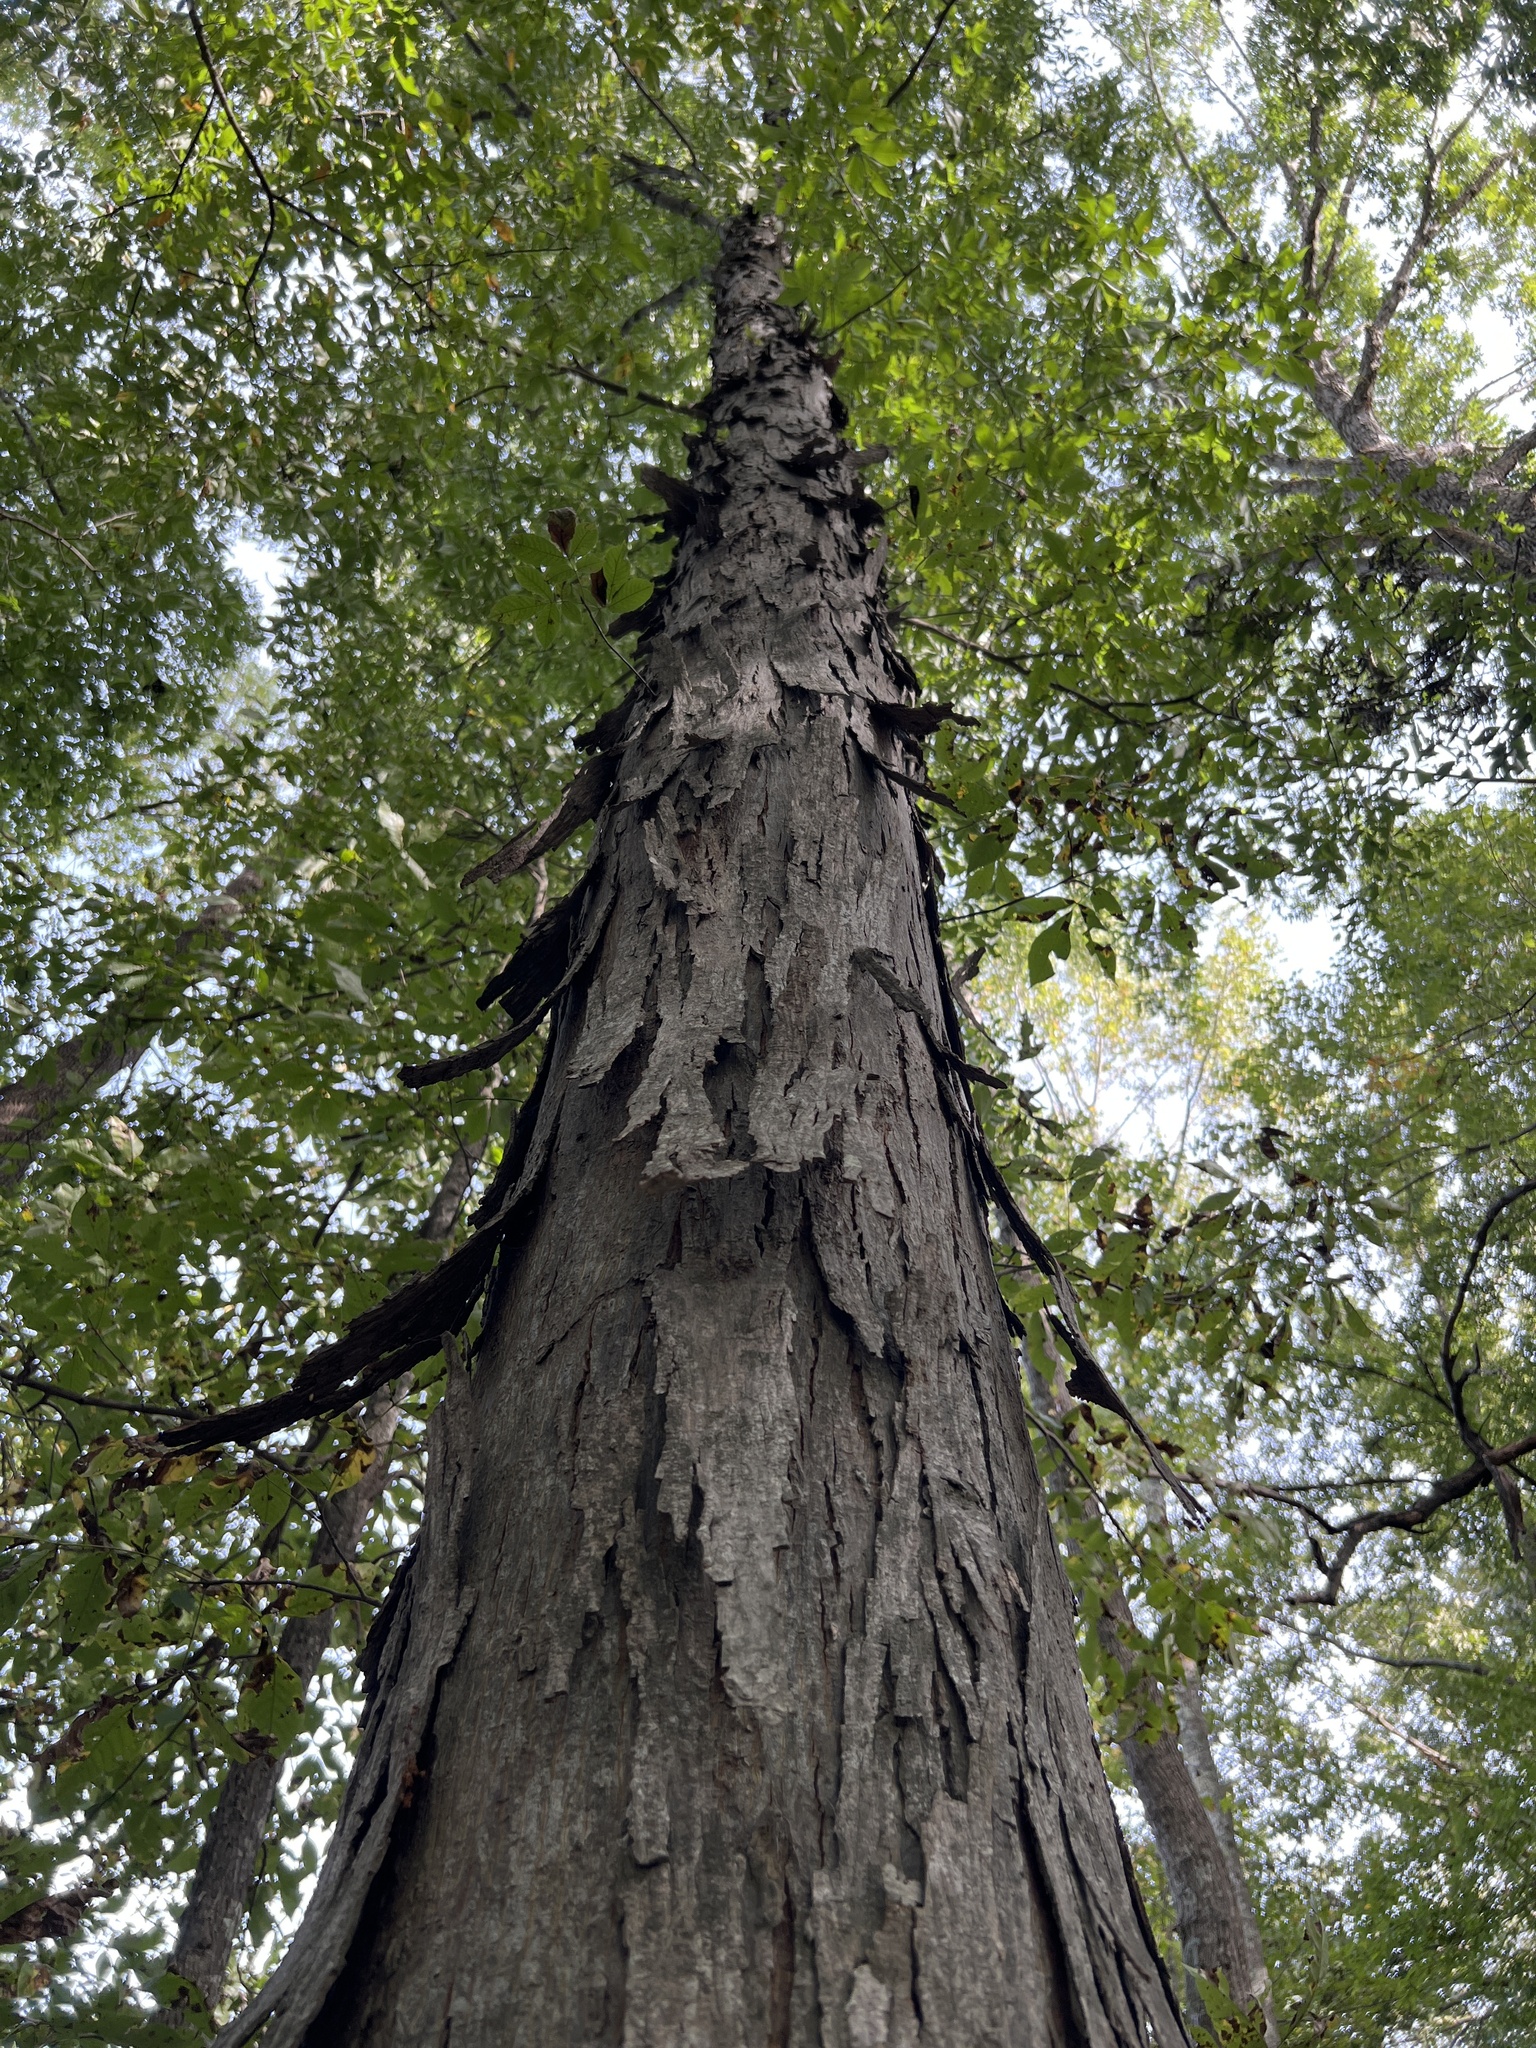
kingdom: Plantae
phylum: Tracheophyta
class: Magnoliopsida
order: Fagales
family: Juglandaceae
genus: Carya
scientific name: Carya carolinae-septentrionalis
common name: Carolina hickory
